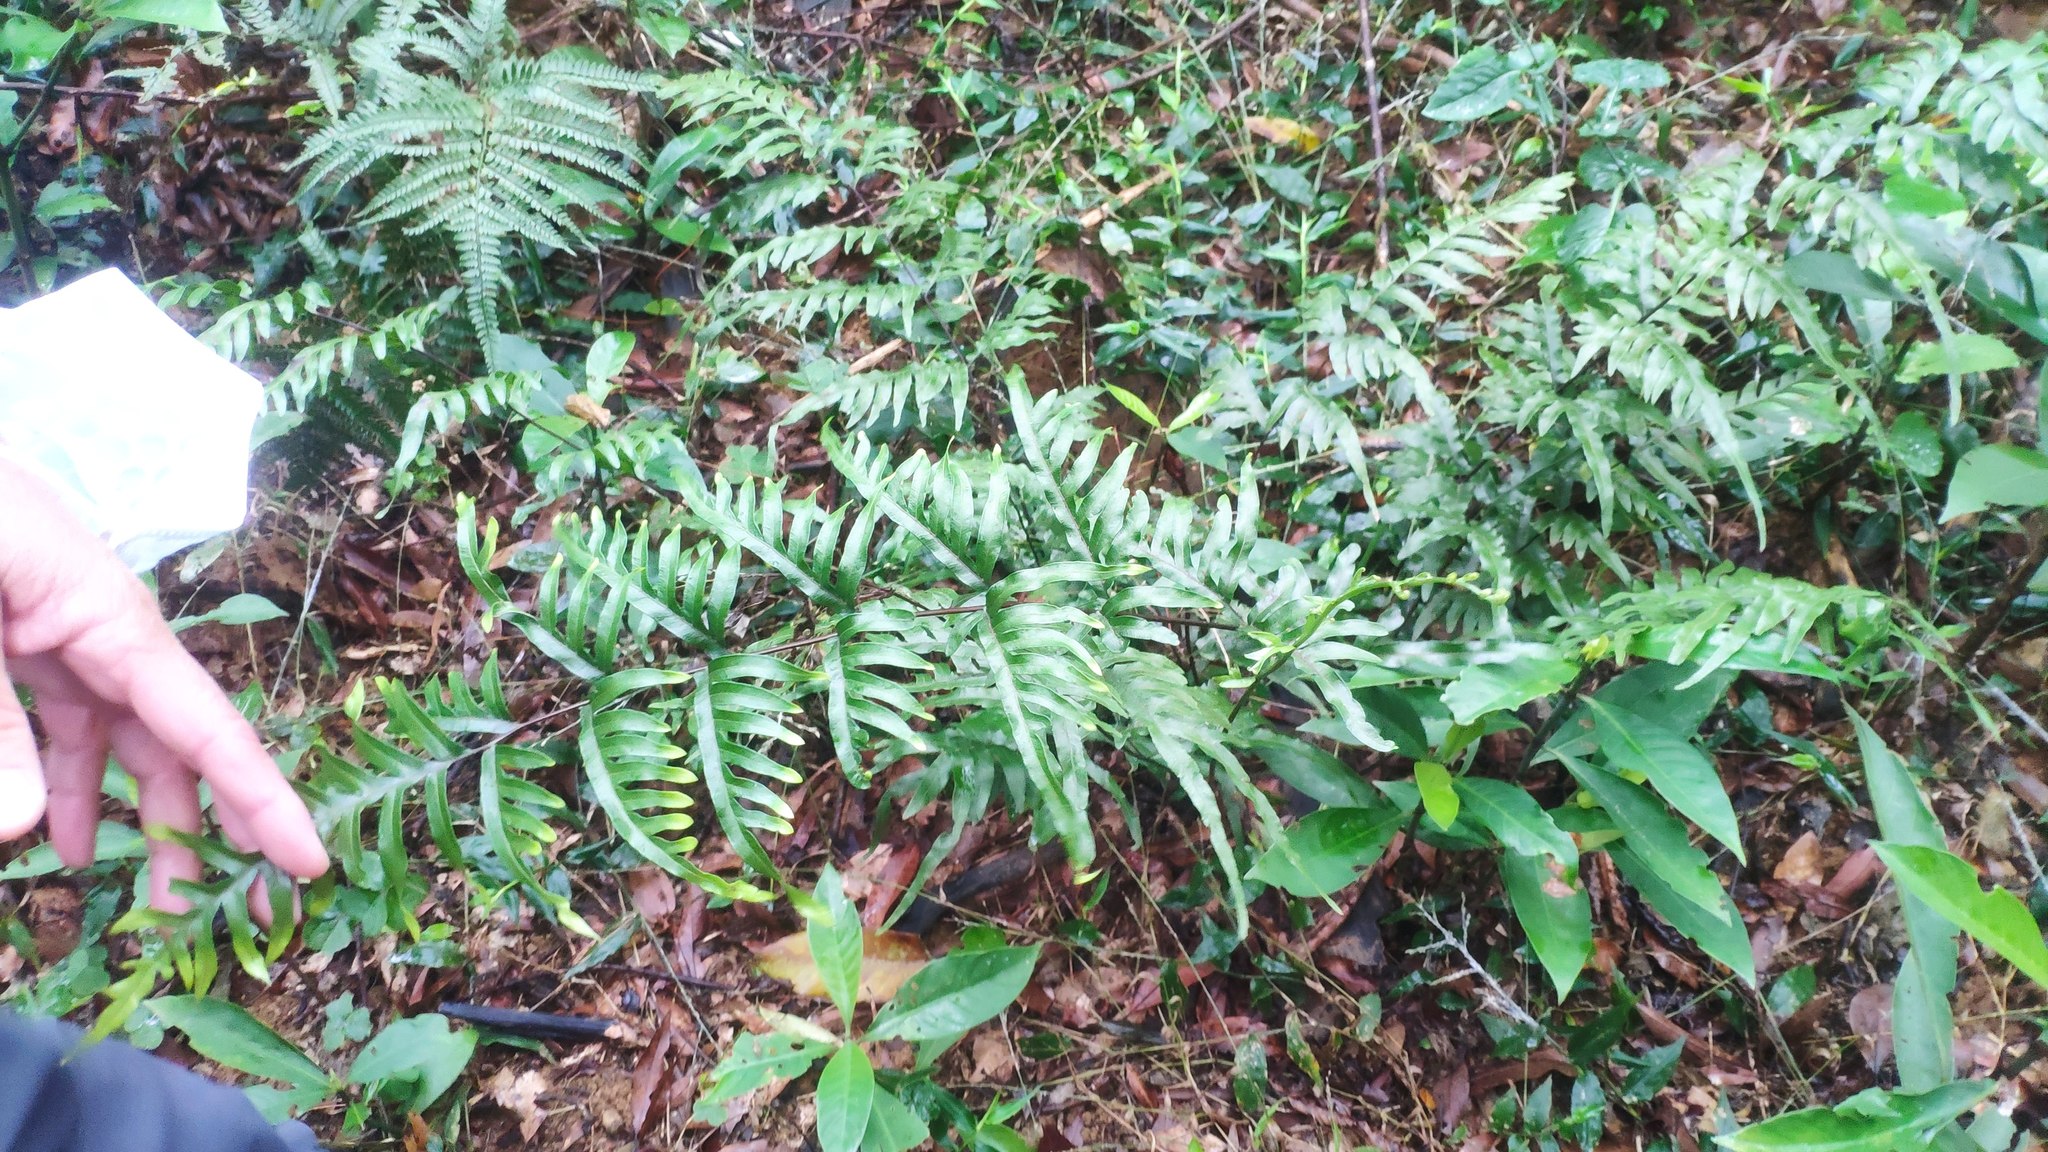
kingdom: Plantae
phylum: Tracheophyta
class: Polypodiopsida
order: Polypodiales
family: Pteridaceae
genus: Pteris
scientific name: Pteris semipinnata
